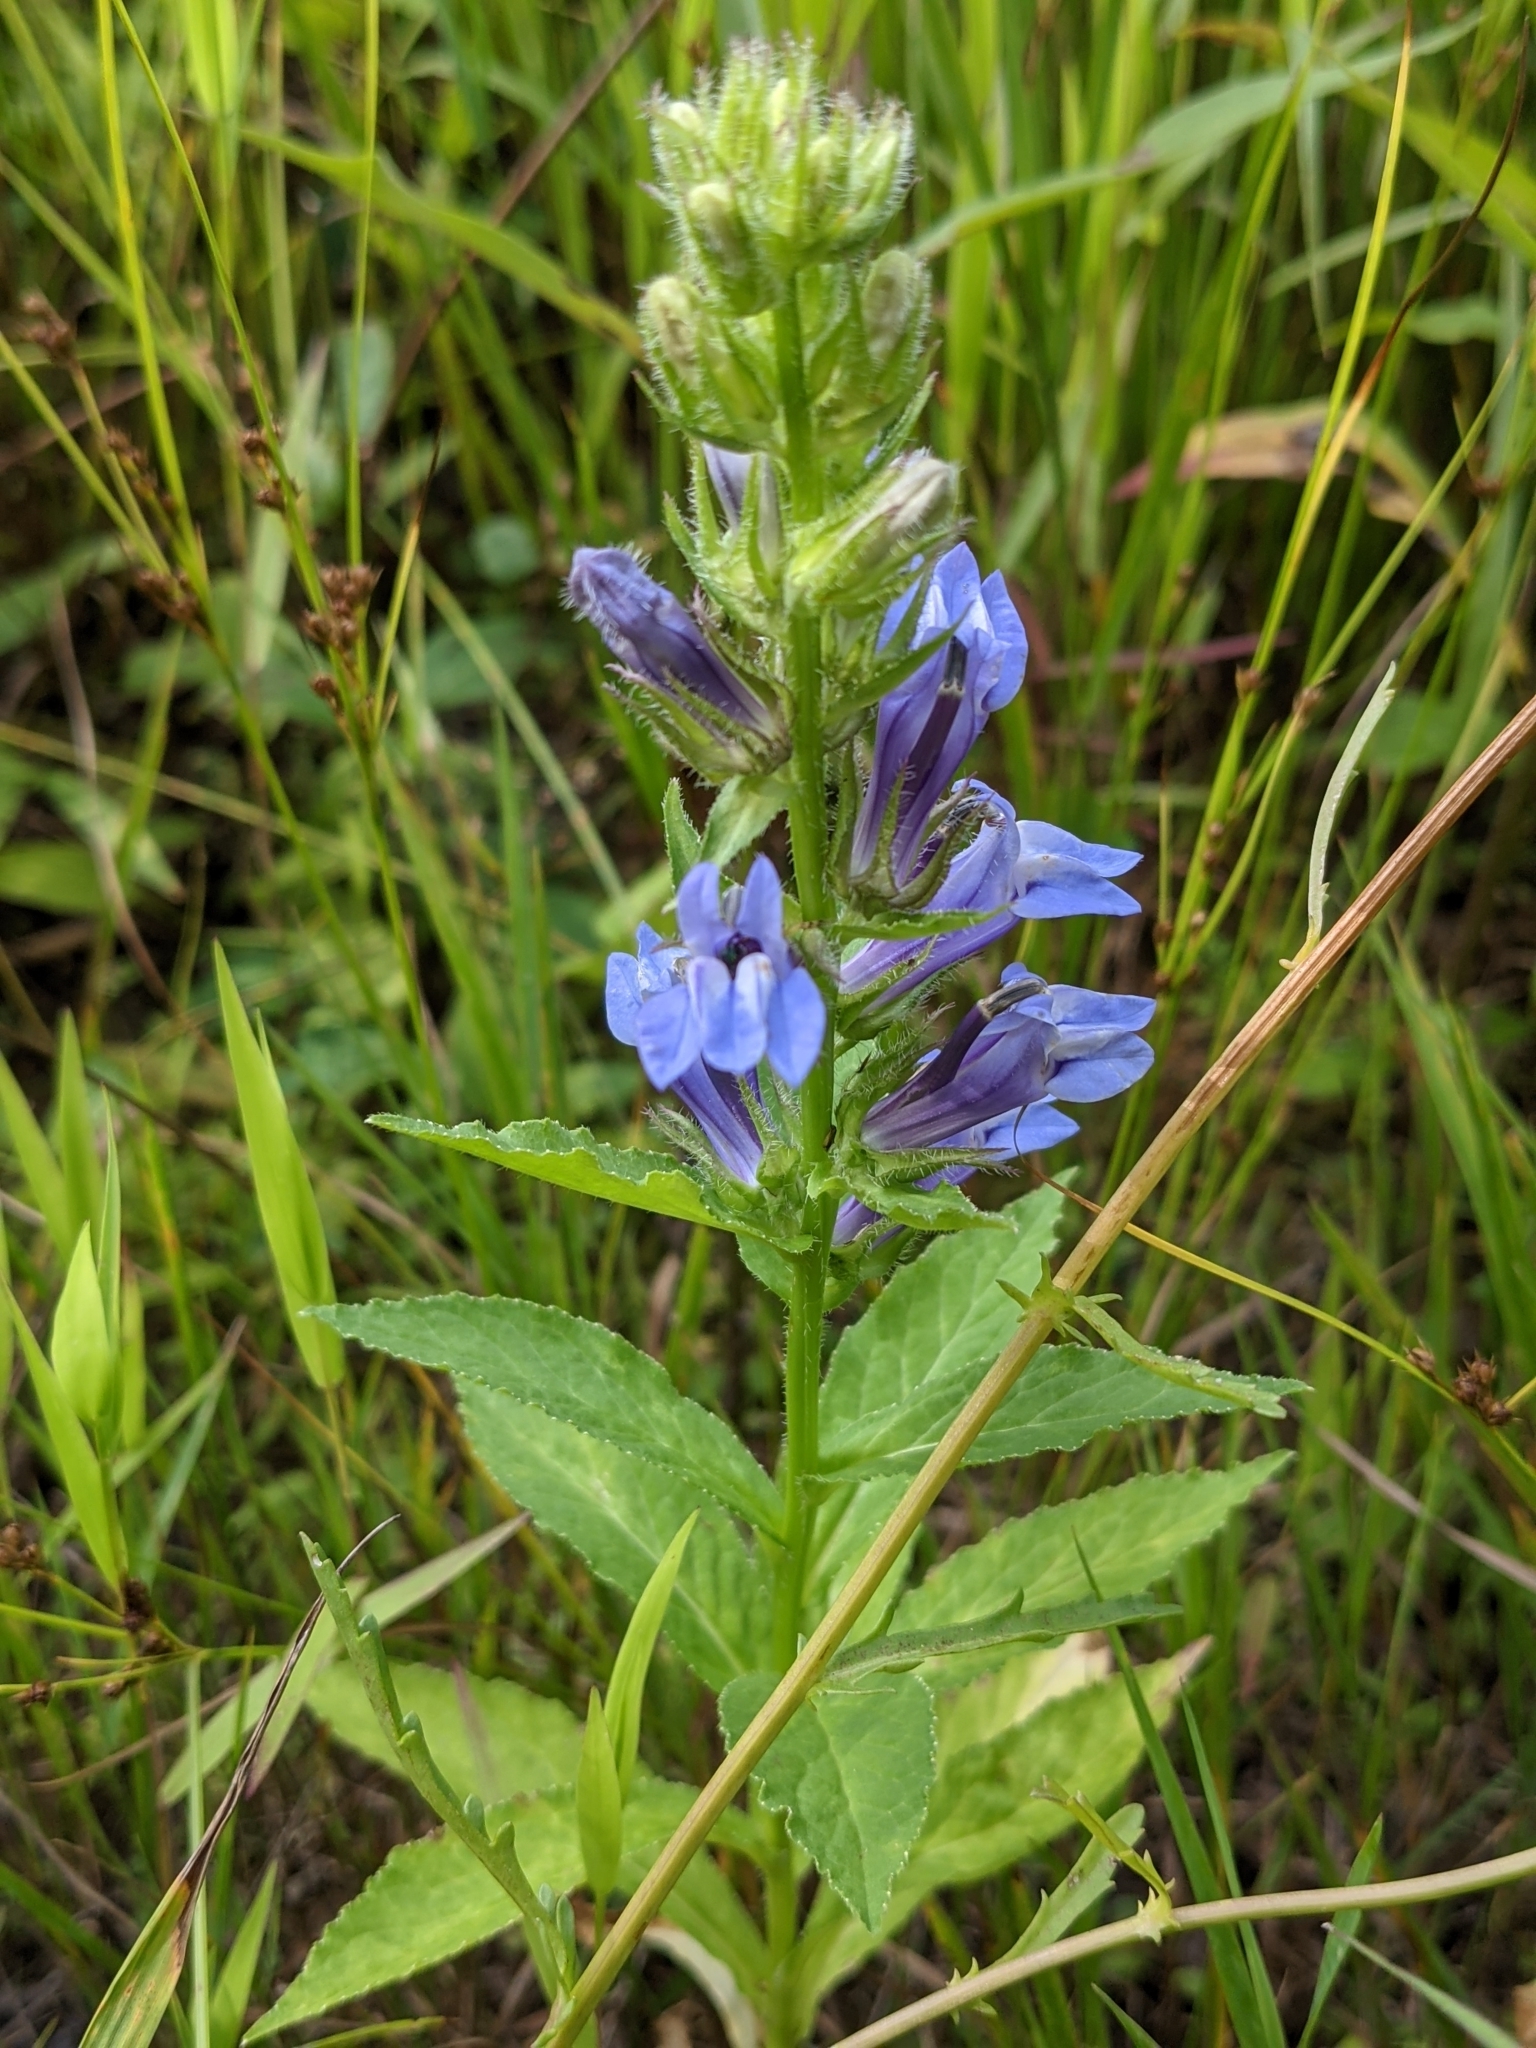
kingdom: Plantae
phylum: Tracheophyta
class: Magnoliopsida
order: Asterales
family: Campanulaceae
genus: Lobelia
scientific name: Lobelia siphilitica
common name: Great lobelia
